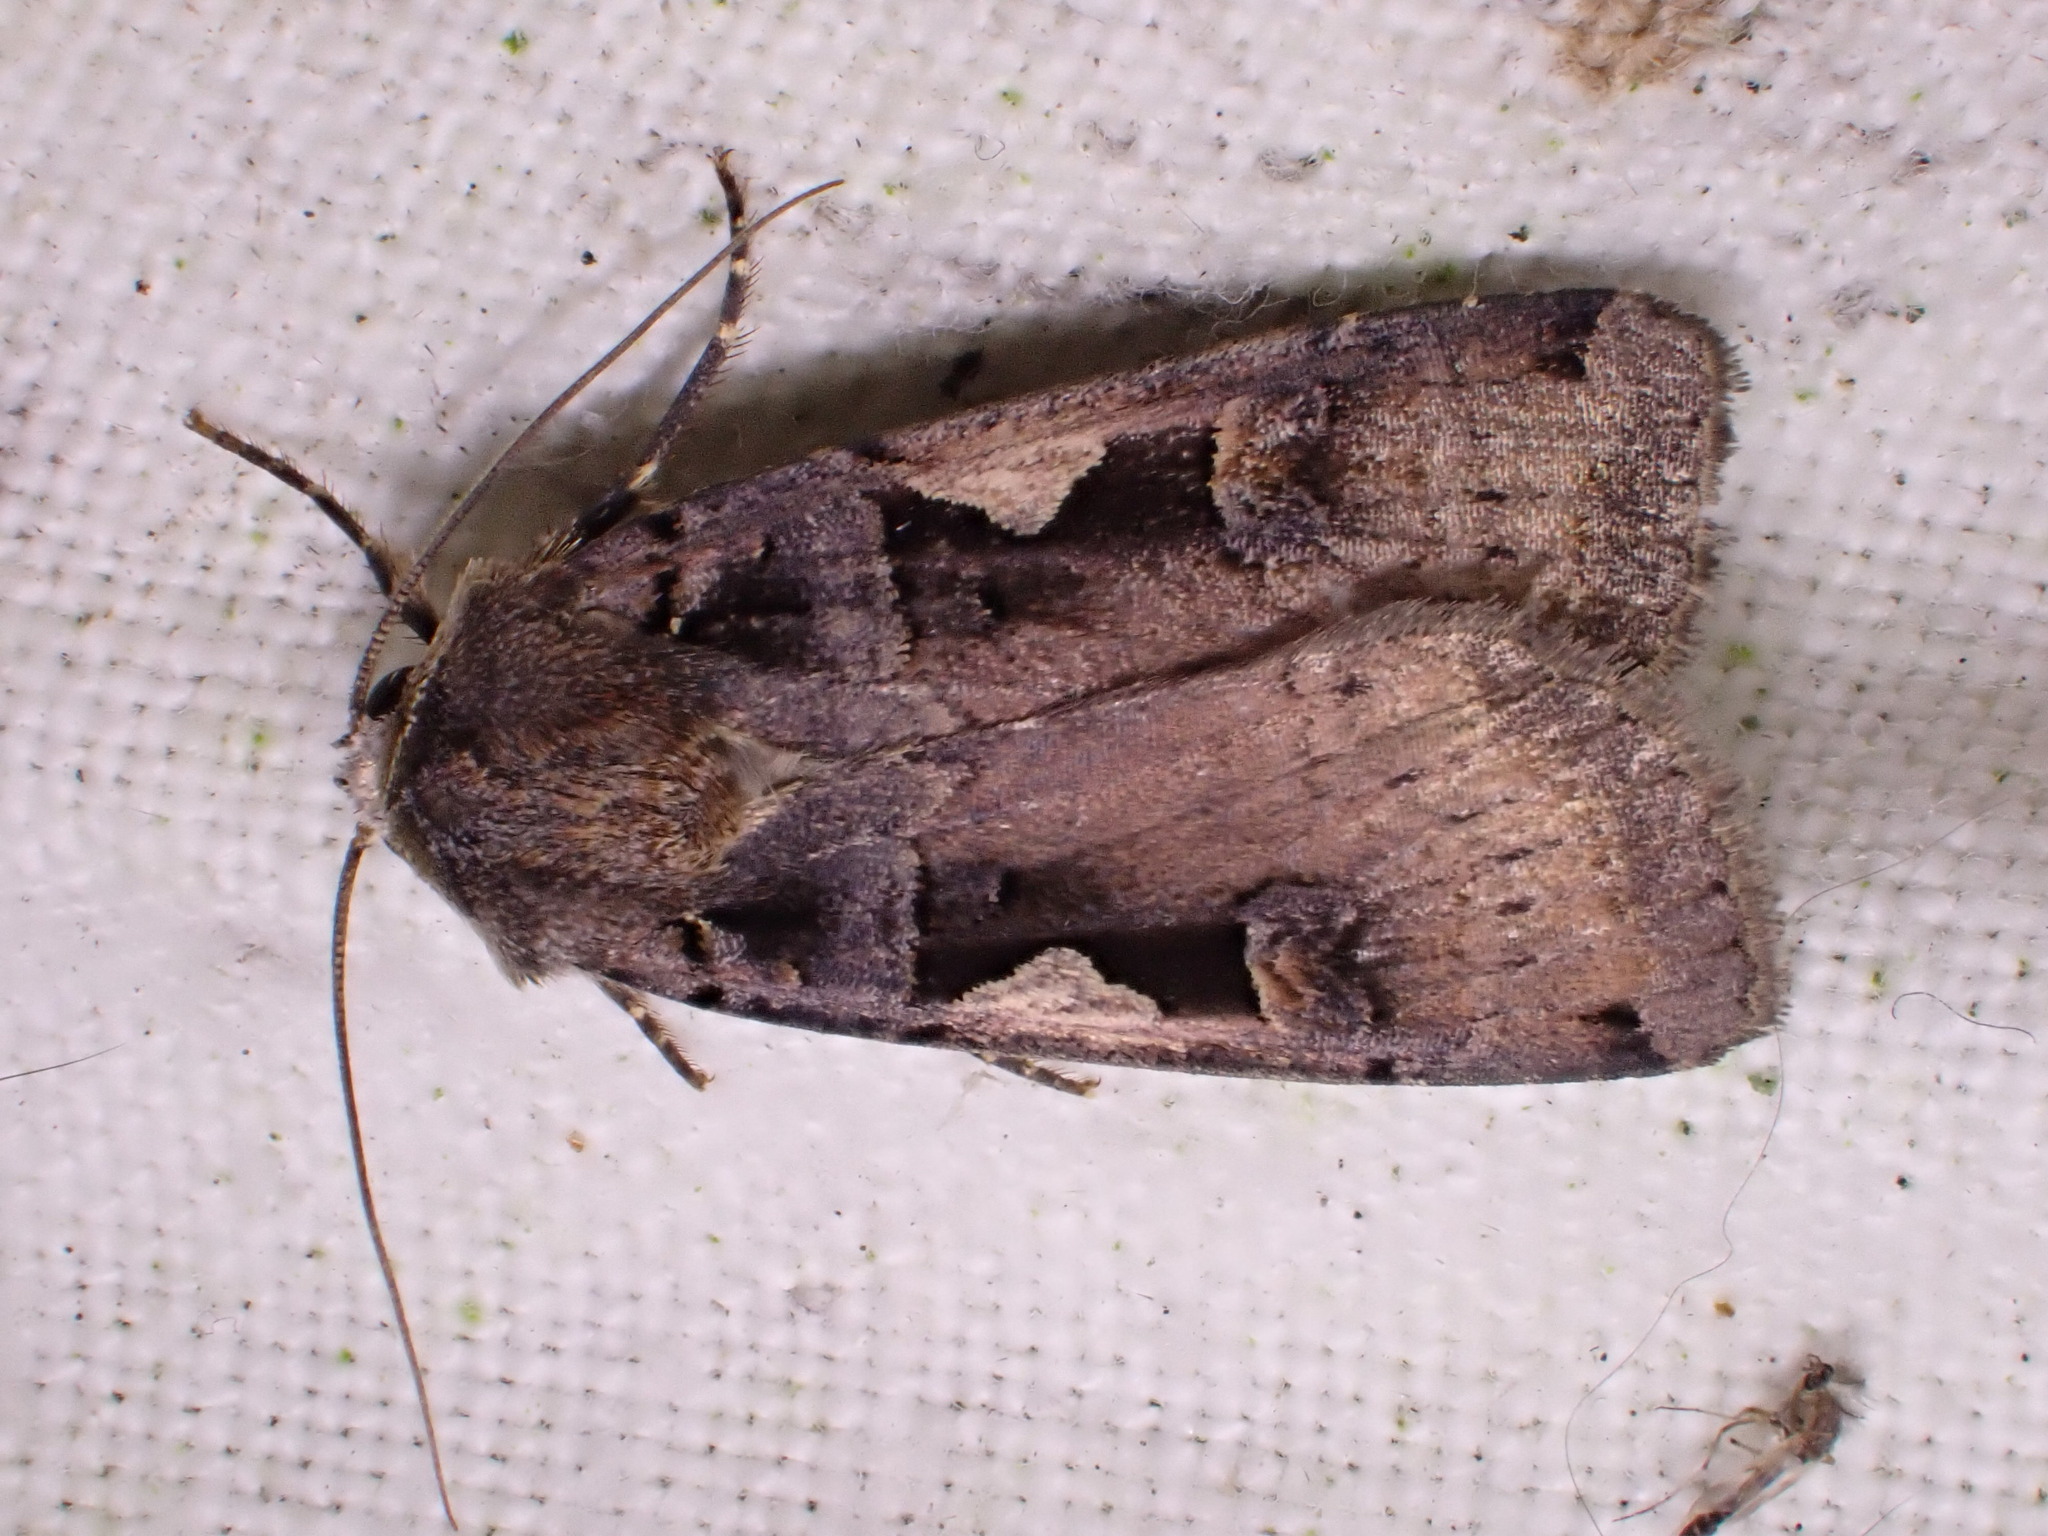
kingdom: Animalia
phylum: Arthropoda
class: Insecta
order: Lepidoptera
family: Noctuidae
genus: Xestia
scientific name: Xestia c-nigrum
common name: Setaceous hebrew character
